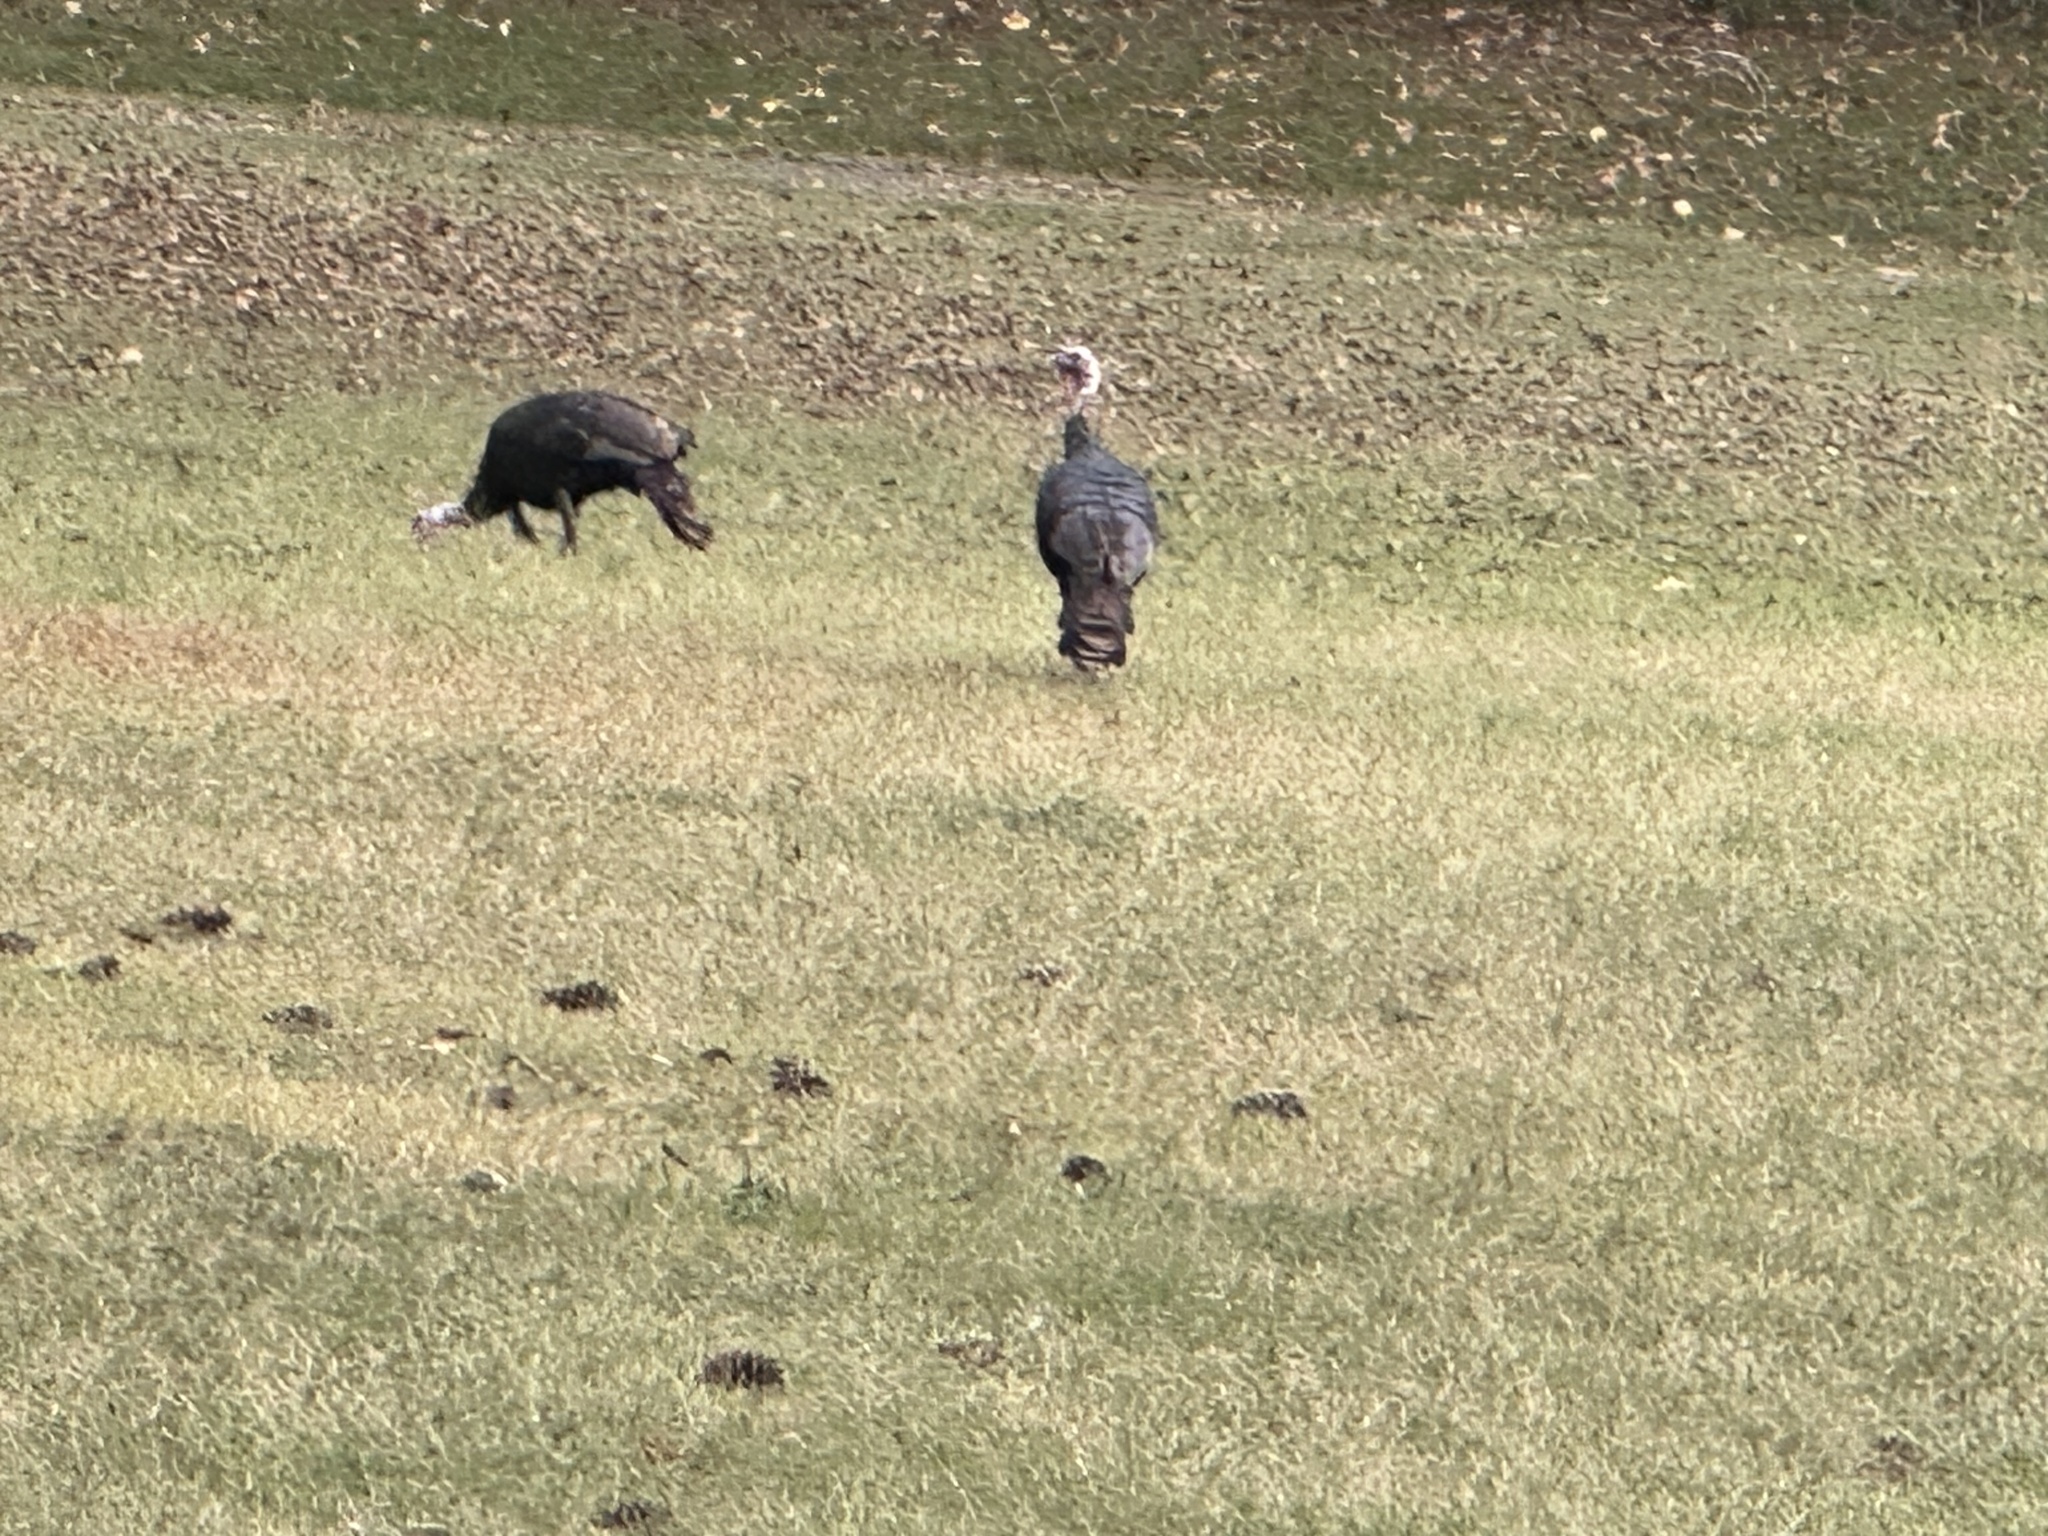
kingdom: Animalia
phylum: Chordata
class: Aves
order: Galliformes
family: Phasianidae
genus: Meleagris
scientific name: Meleagris gallopavo
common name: Wild turkey
